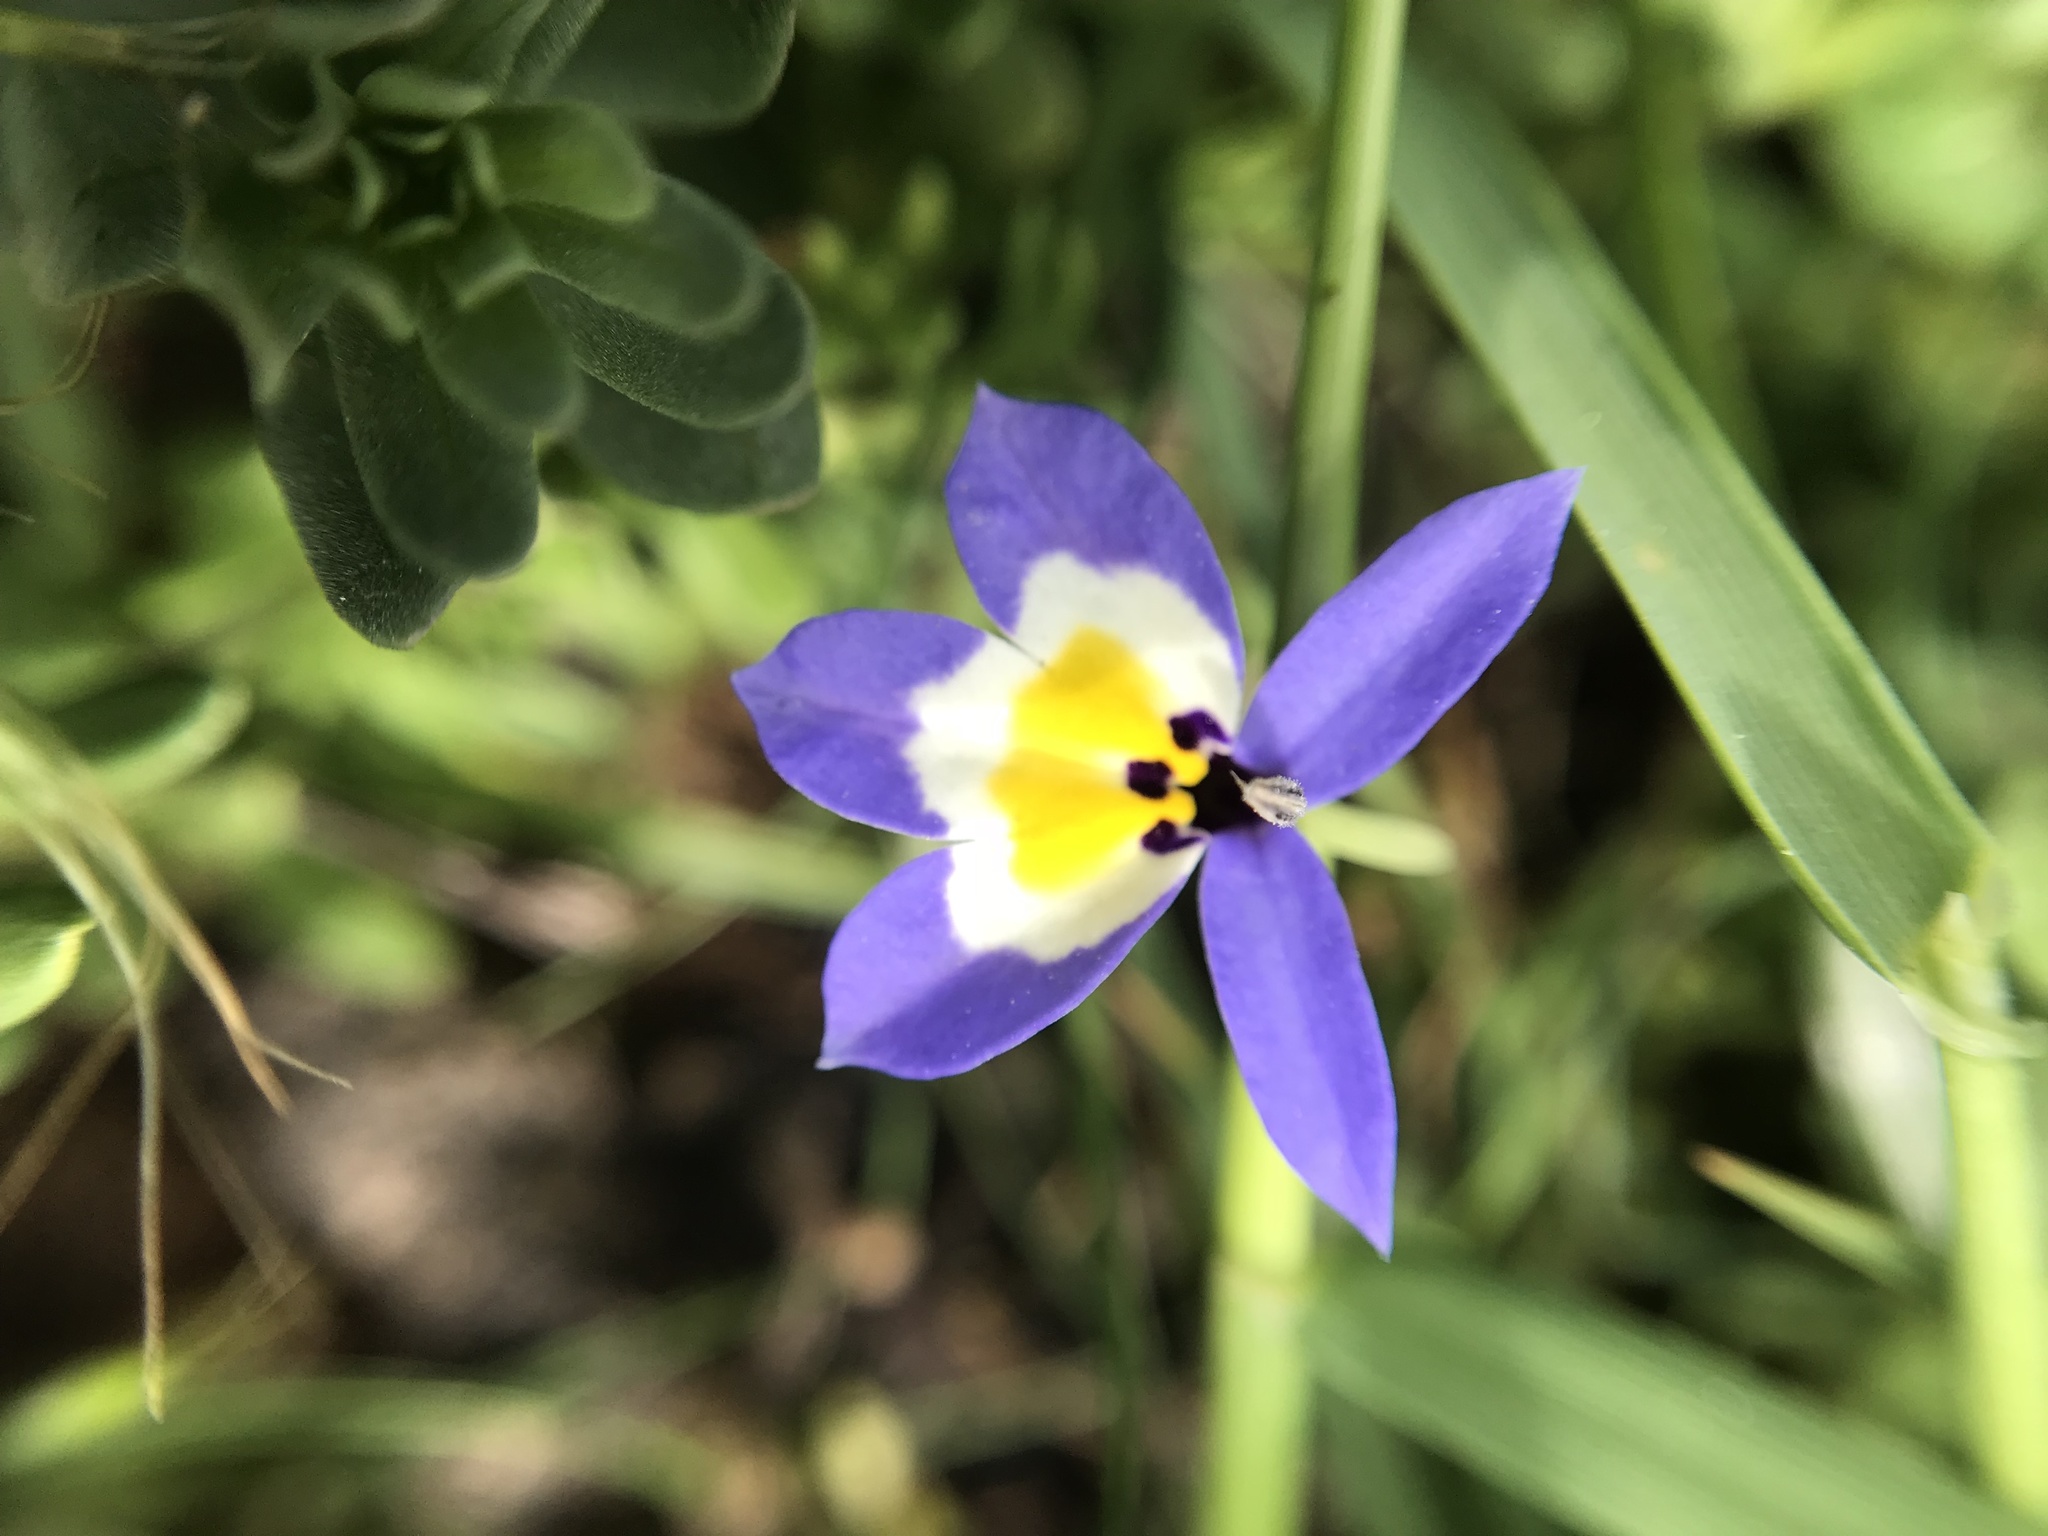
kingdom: Plantae
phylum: Tracheophyta
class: Magnoliopsida
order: Asterales
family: Campanulaceae
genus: Downingia
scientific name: Downingia pulchella
